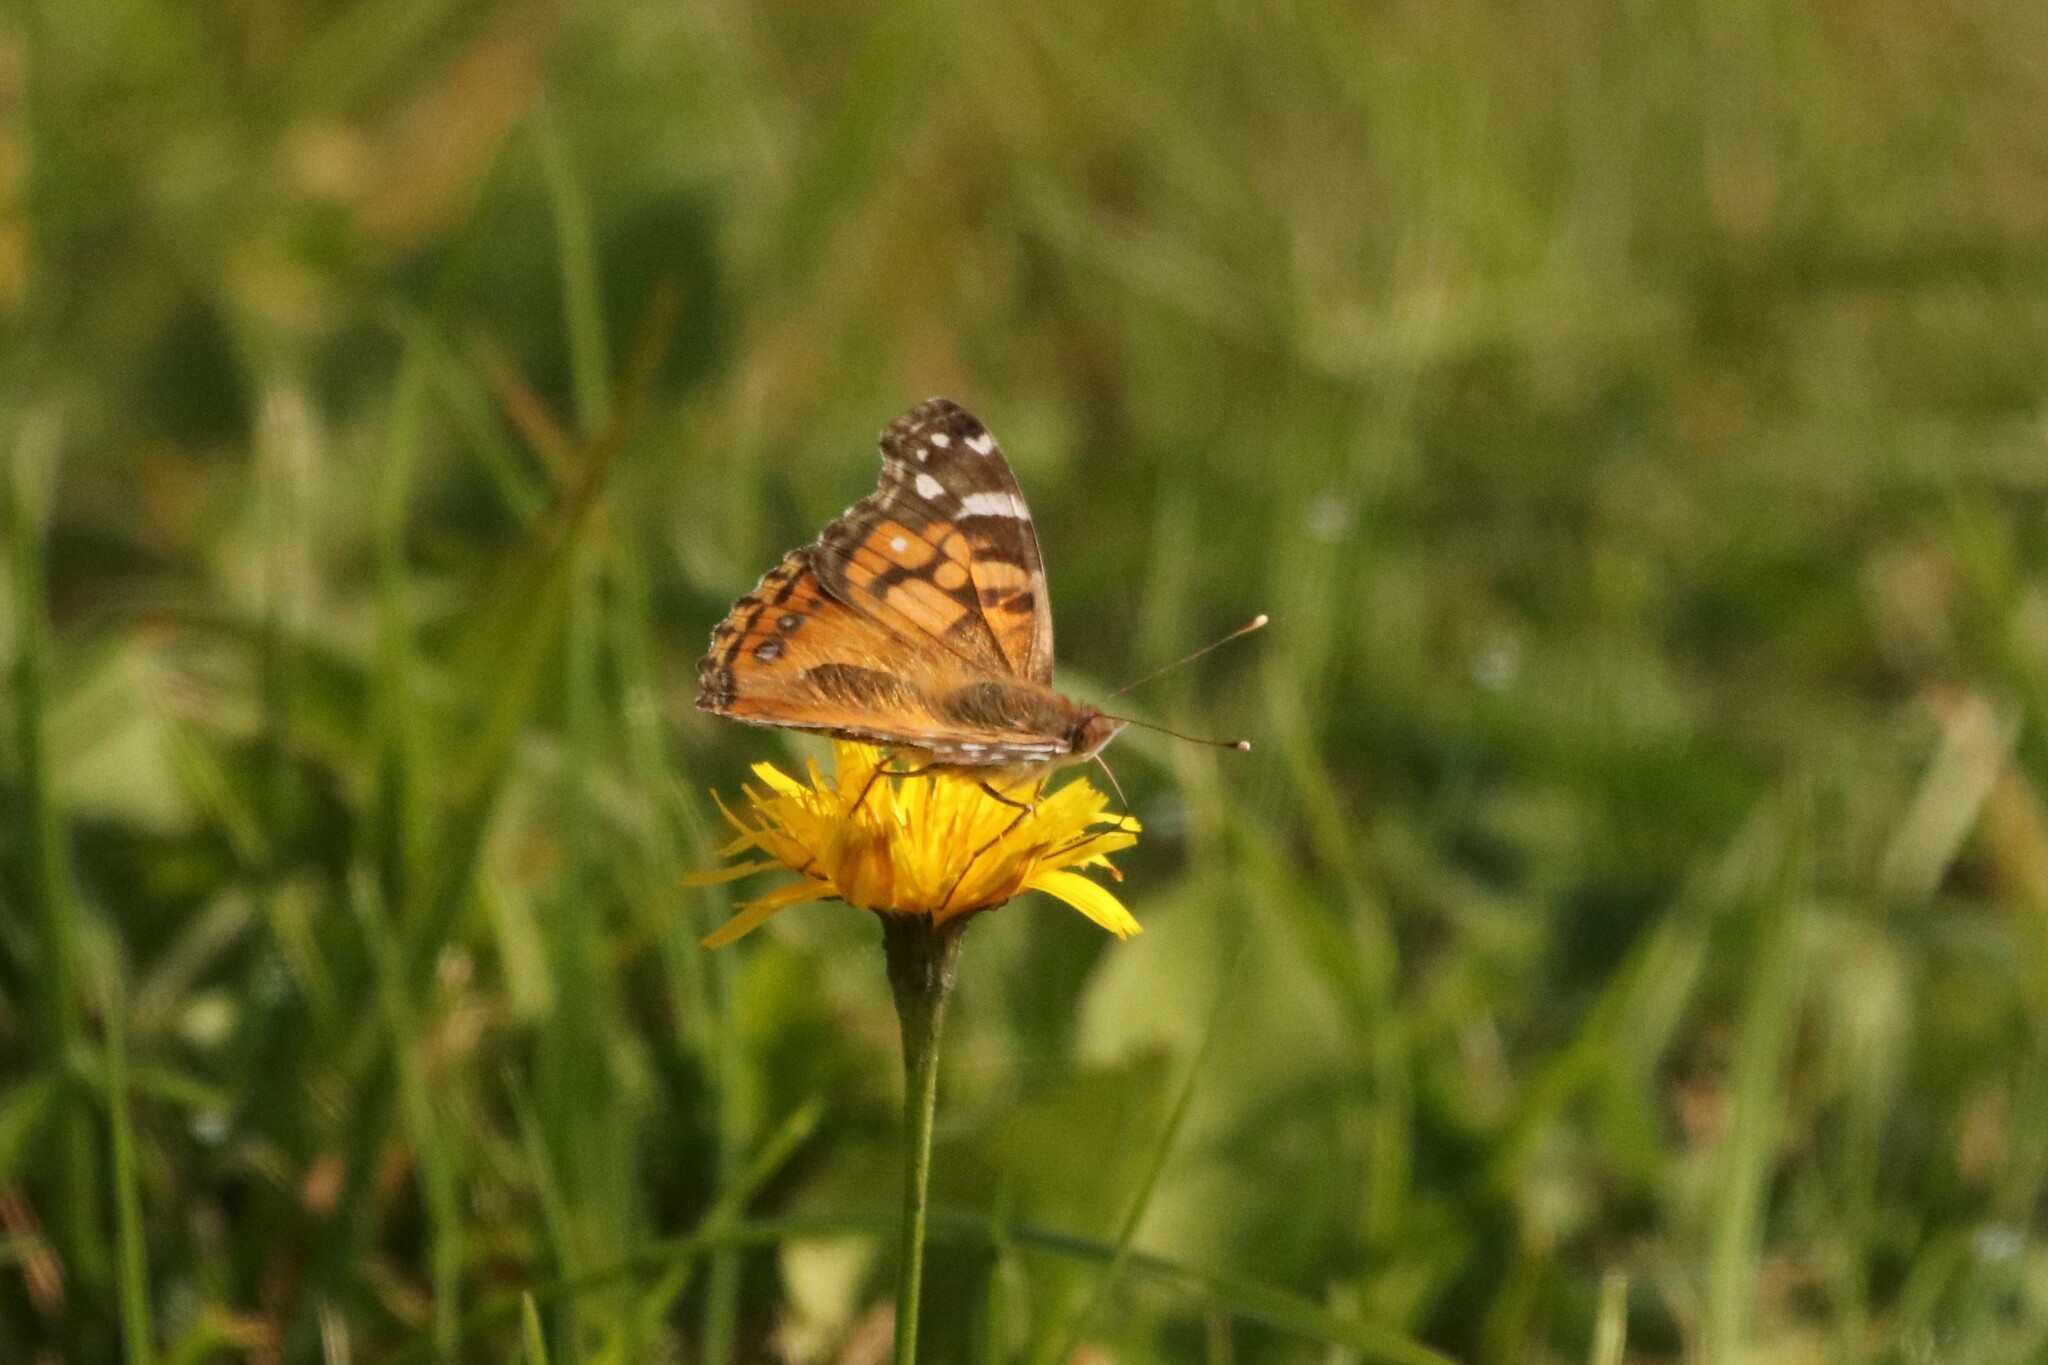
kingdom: Animalia
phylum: Arthropoda
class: Insecta
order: Lepidoptera
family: Nymphalidae
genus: Vanessa
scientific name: Vanessa virginiensis
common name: American lady
